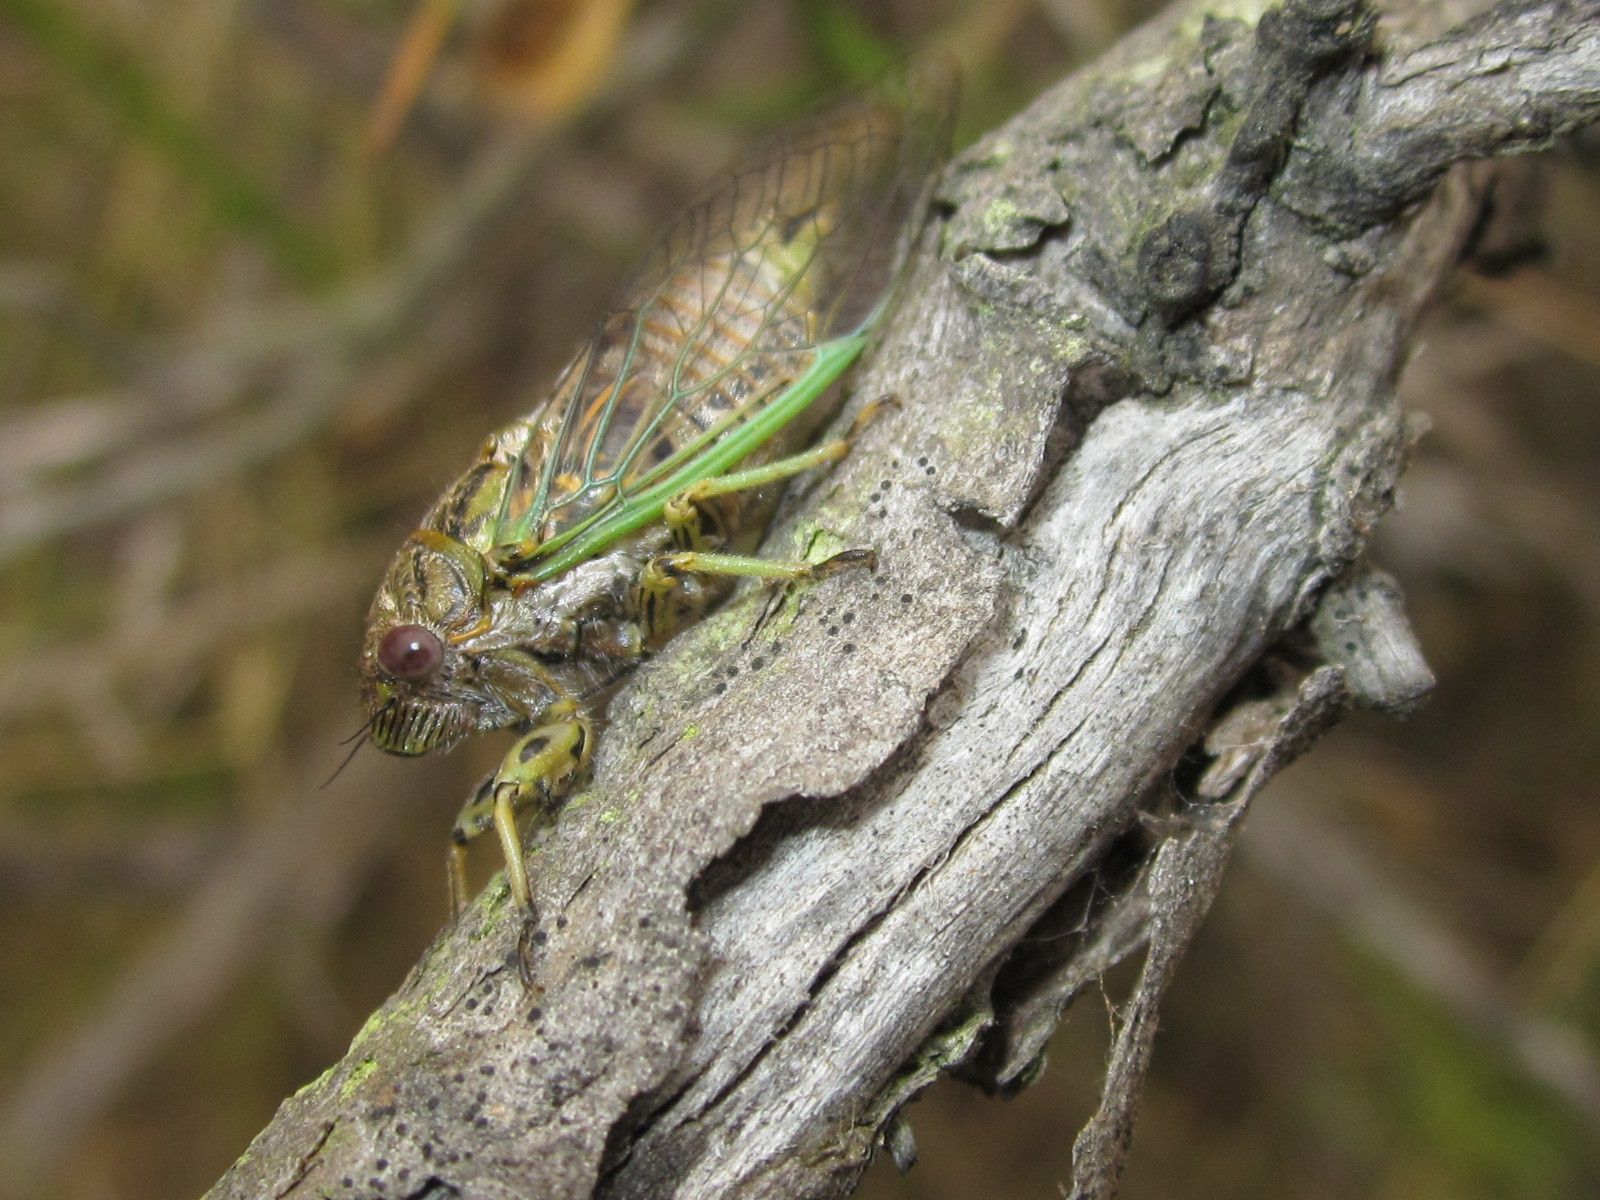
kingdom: Animalia
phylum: Arthropoda
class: Insecta
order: Hemiptera
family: Cicadidae
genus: Chilecicada
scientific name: Chilecicada occidentis
